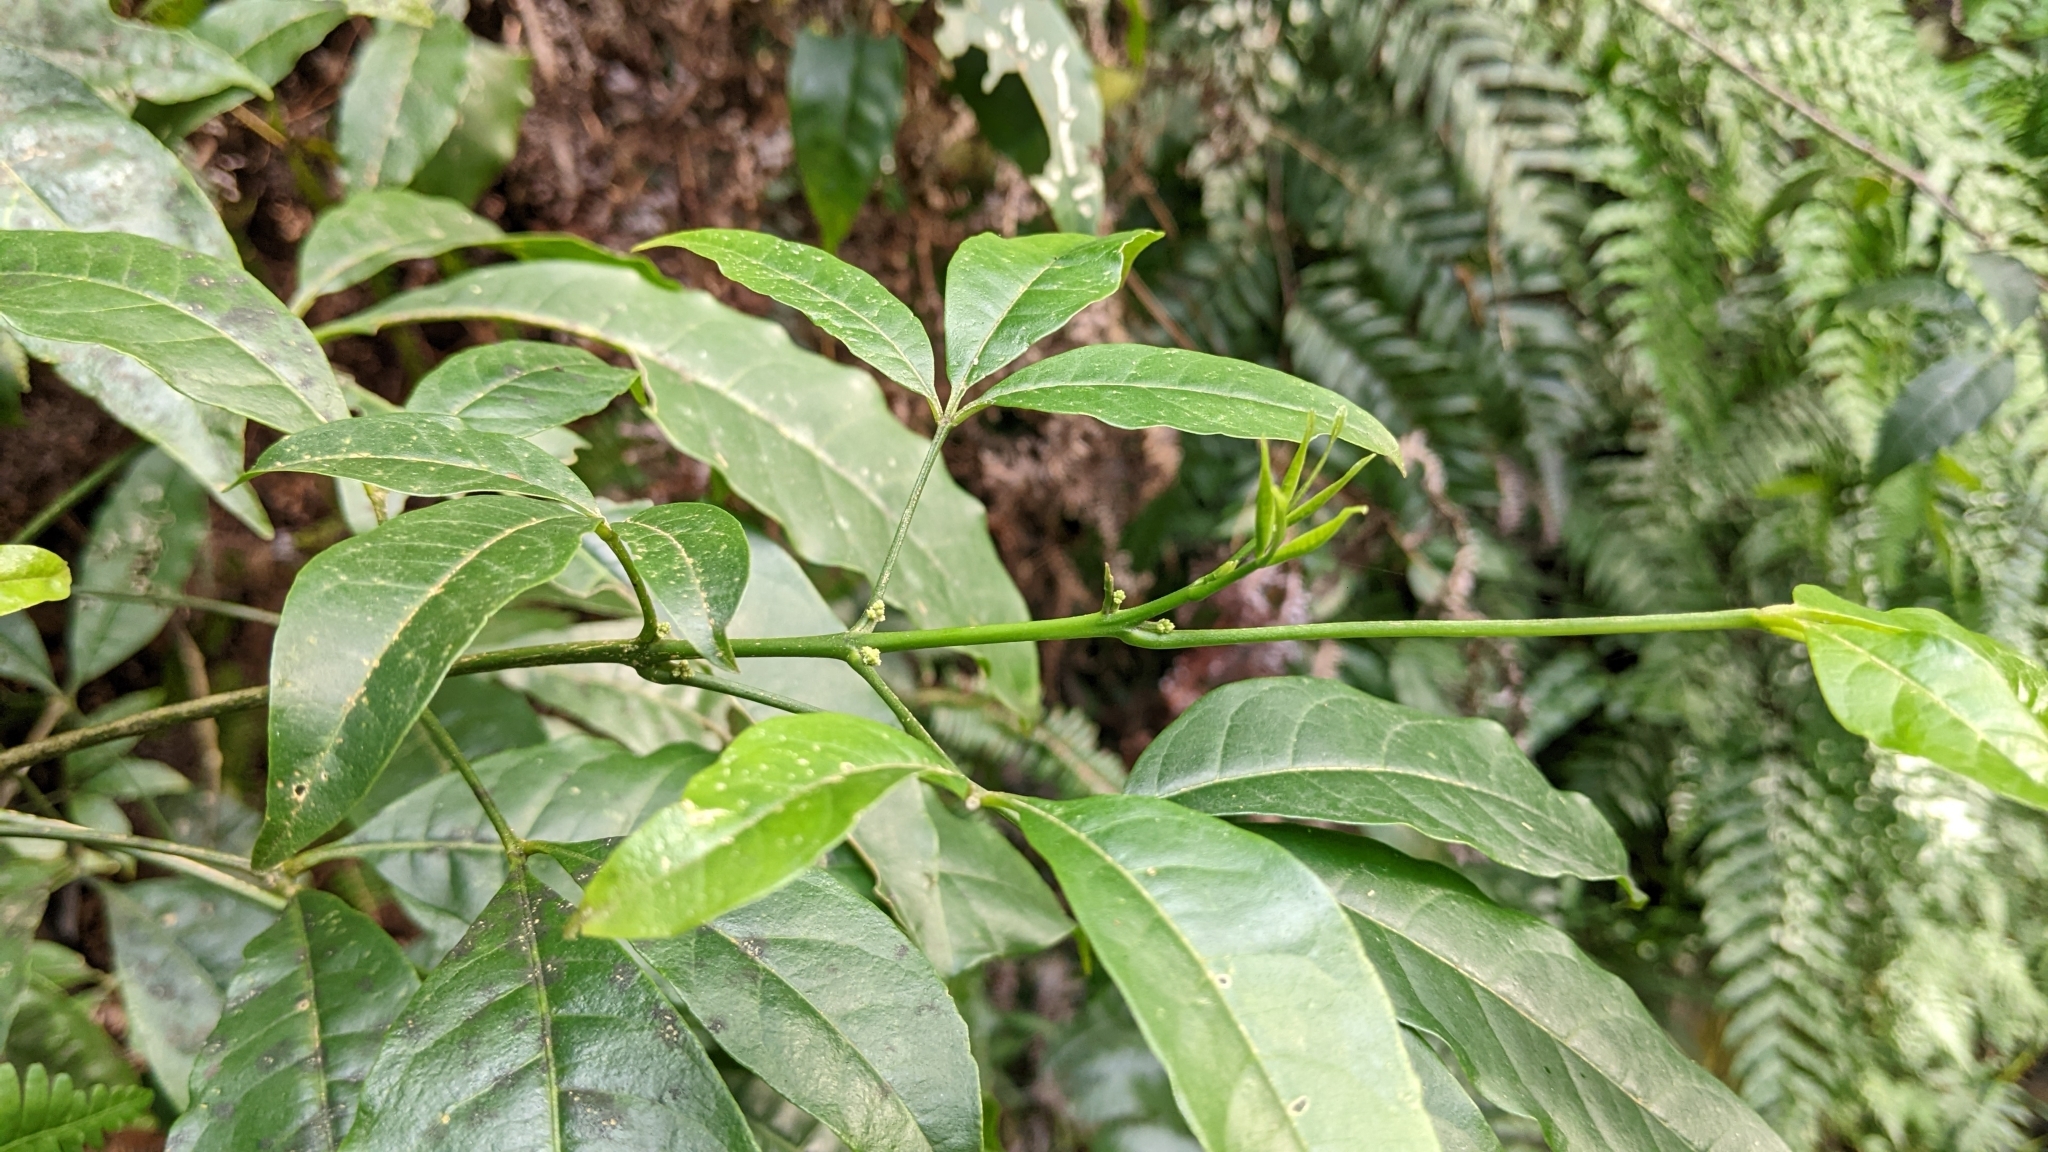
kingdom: Plantae
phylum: Tracheophyta
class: Magnoliopsida
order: Sapindales
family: Rutaceae
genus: Melicope
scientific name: Melicope pteleifolia
